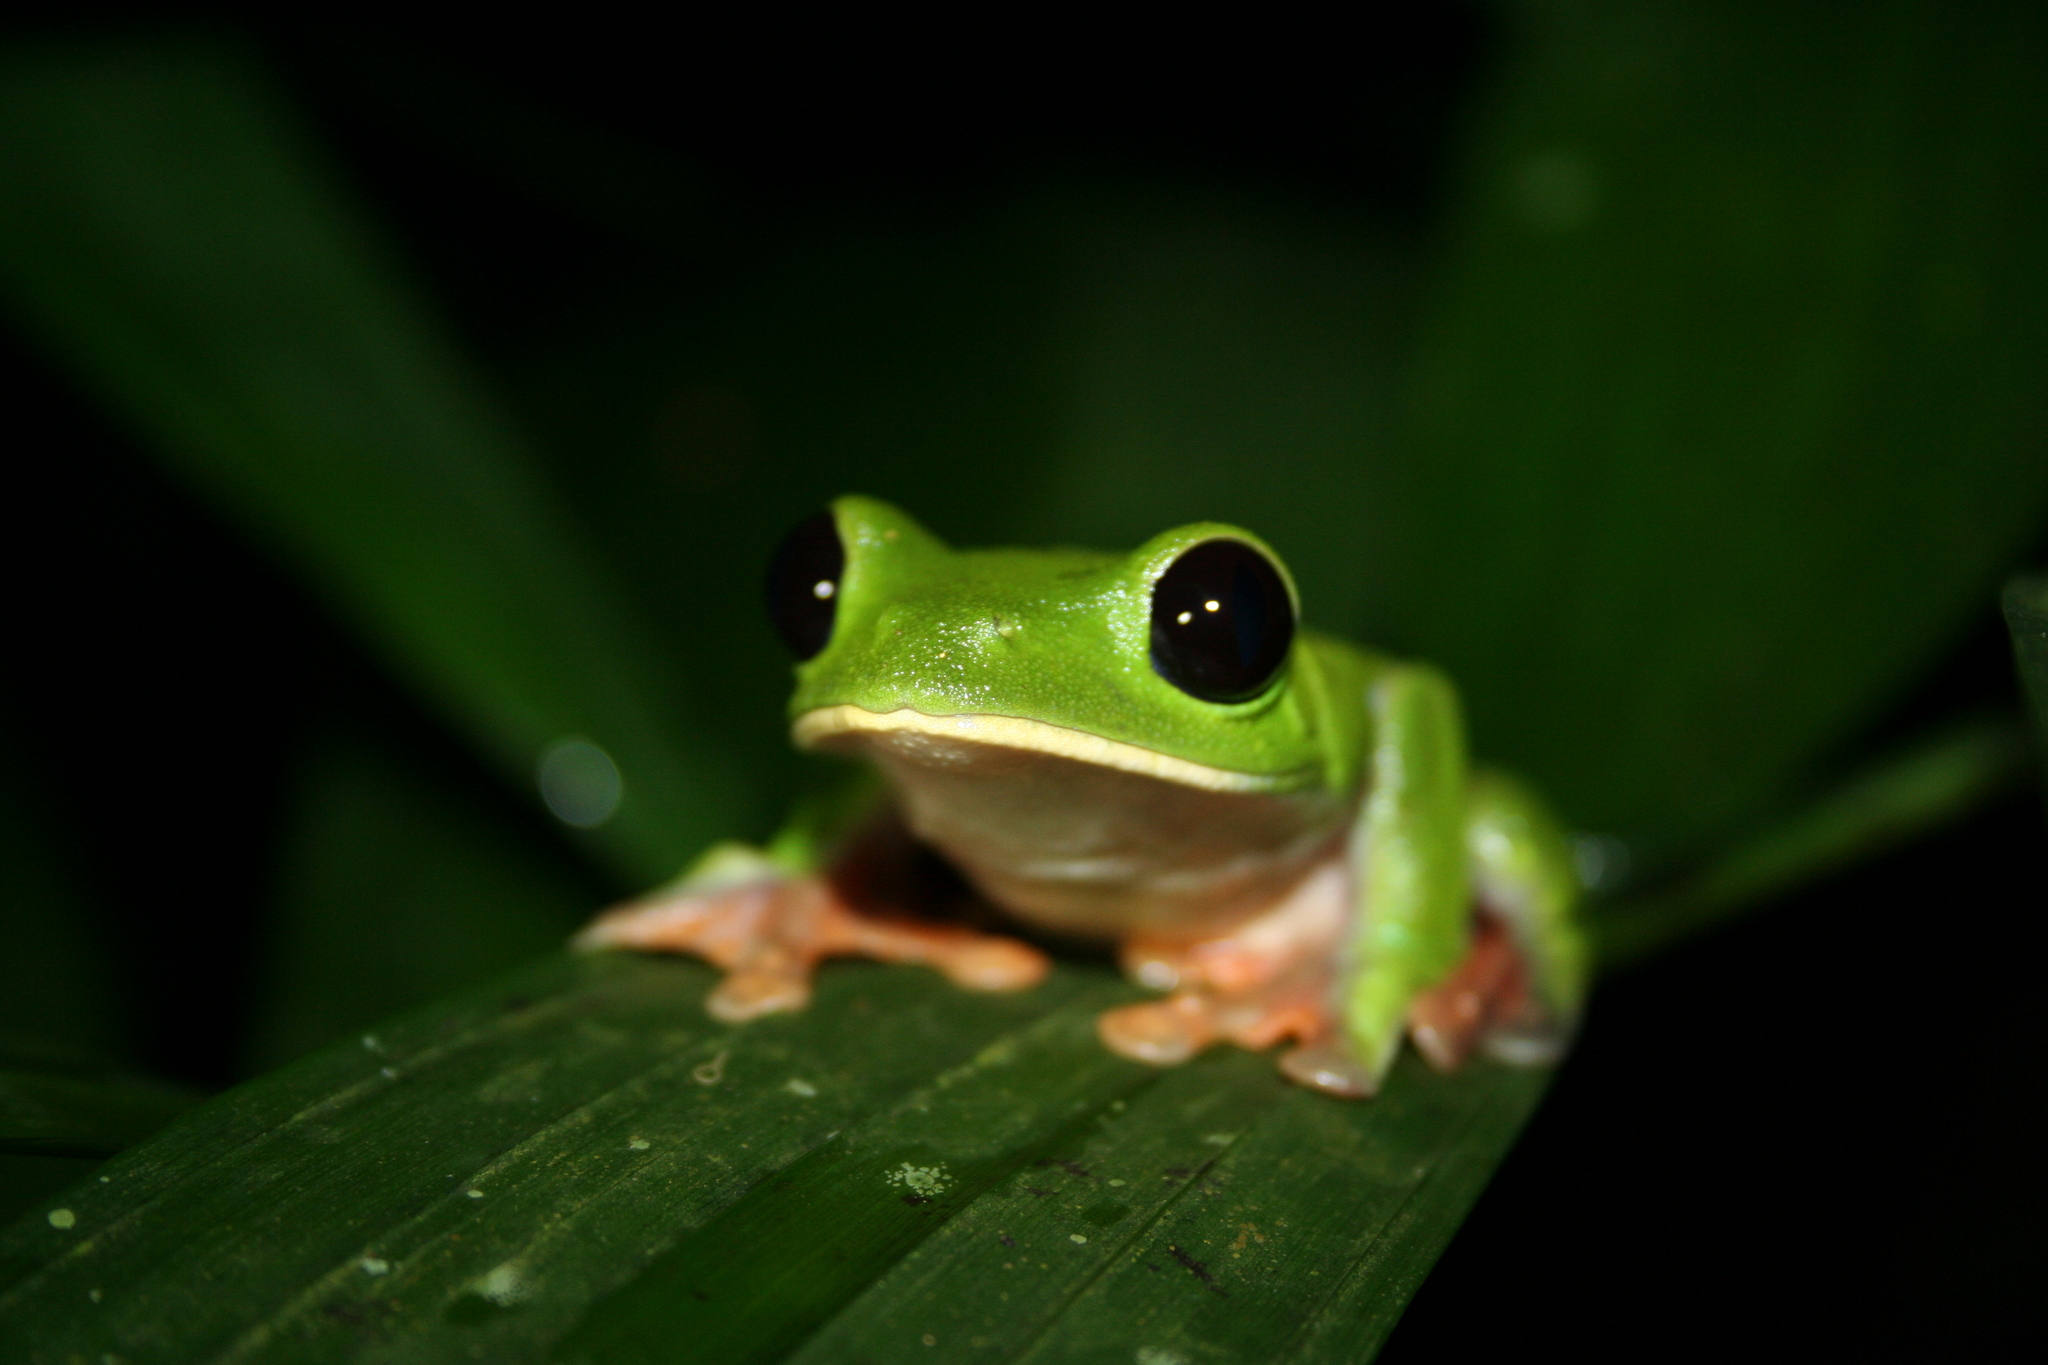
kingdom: Animalia
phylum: Chordata
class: Amphibia
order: Anura
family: Phyllomedusidae
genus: Agalychnis
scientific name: Agalychnis moreletii
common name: Black-eyed leaf frog
